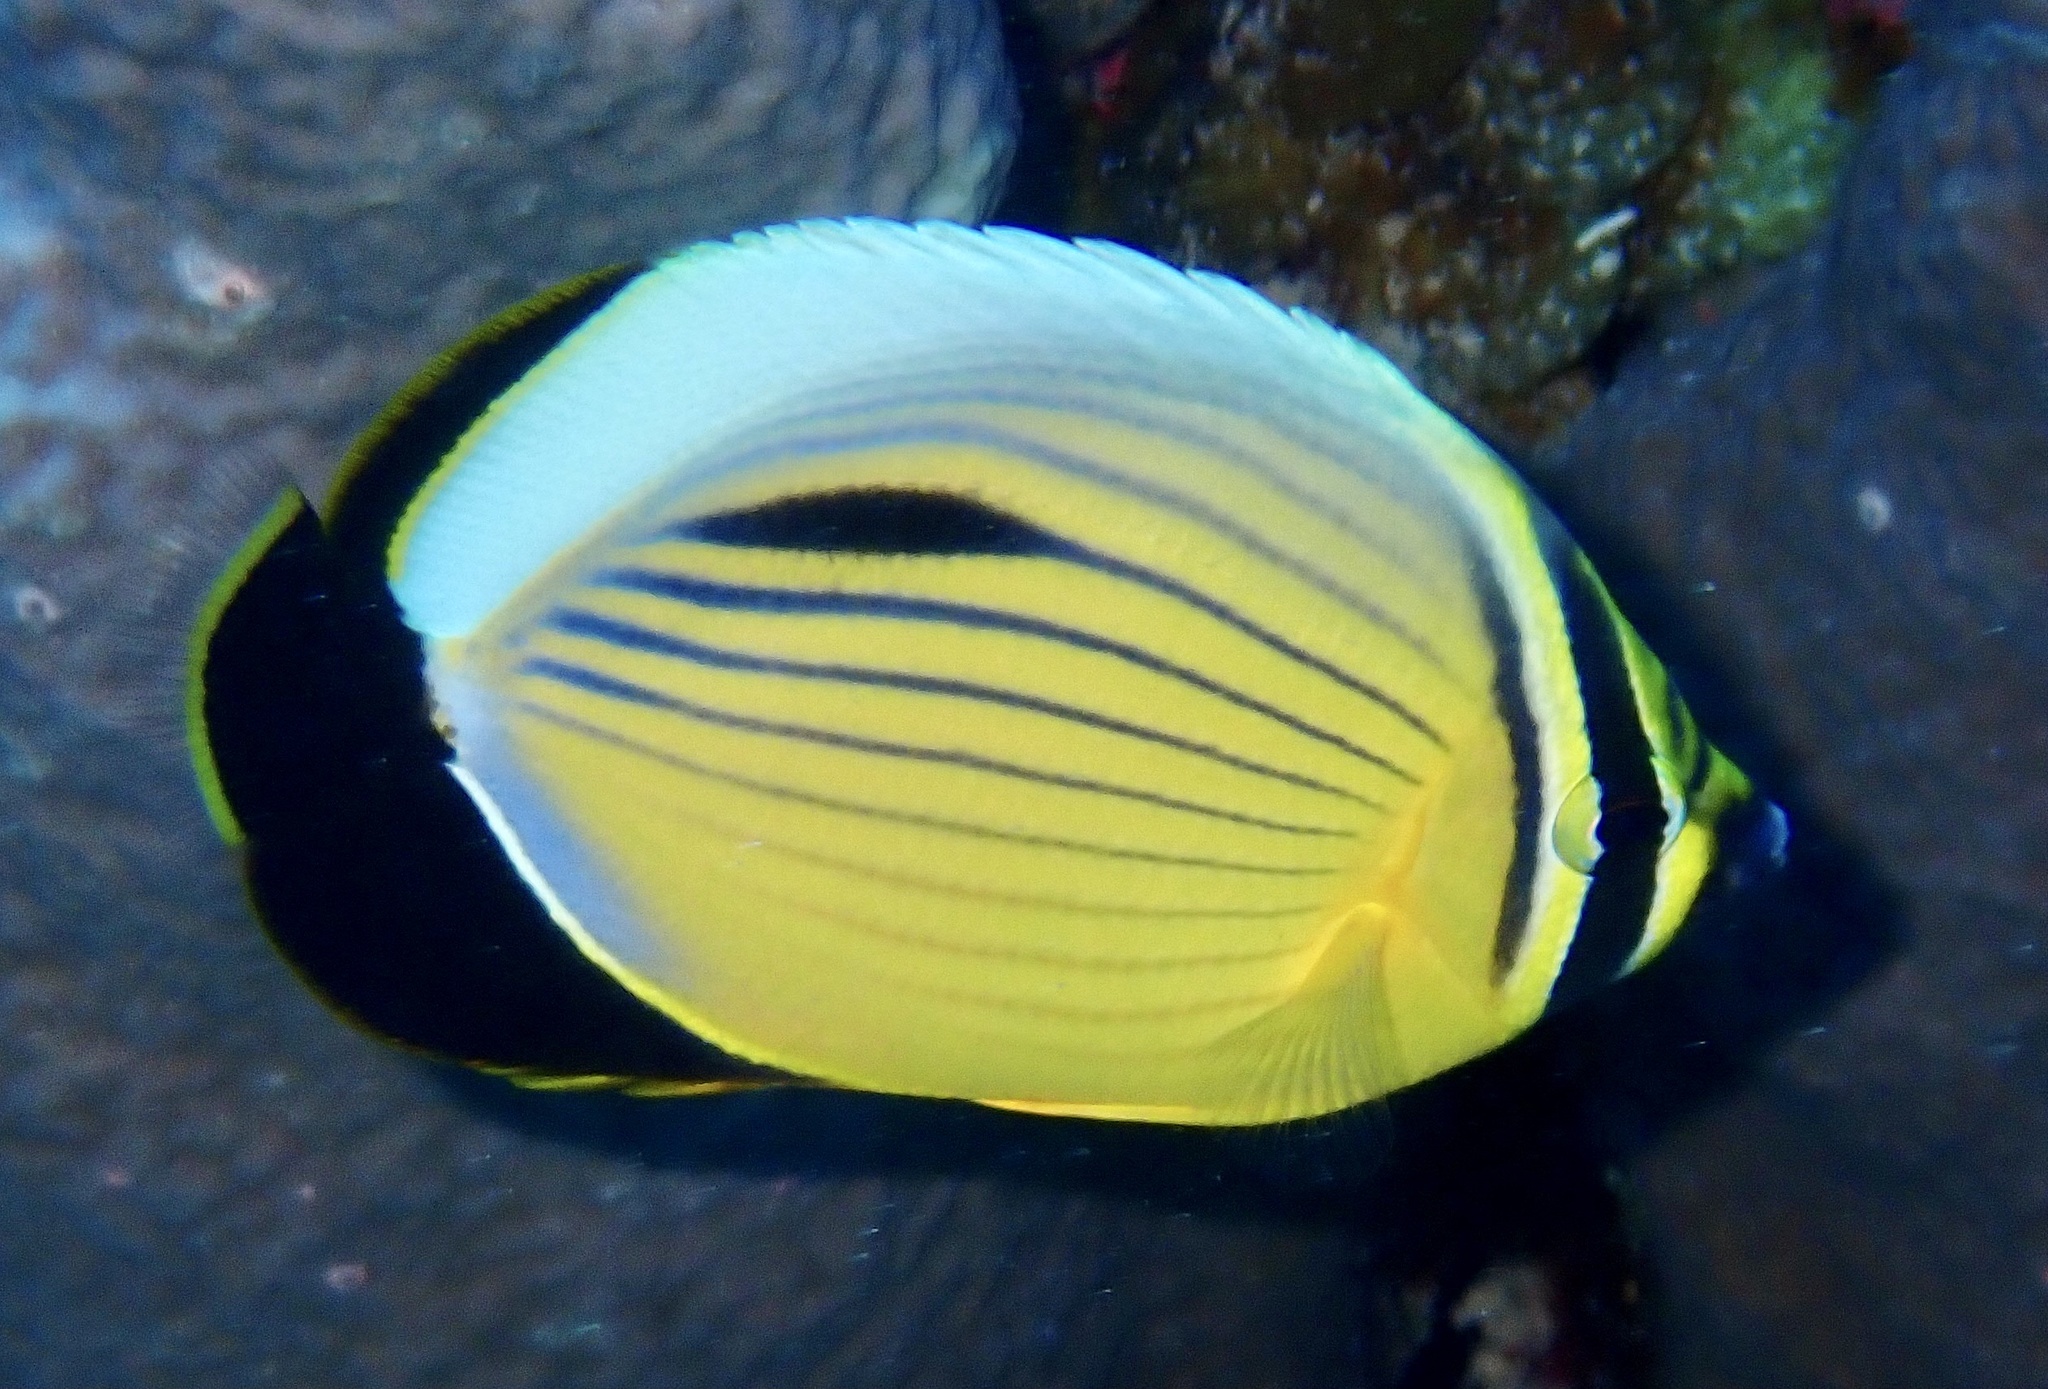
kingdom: Animalia
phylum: Chordata
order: Perciformes
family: Chaetodontidae
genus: Chaetodon
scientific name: Chaetodon austriacus
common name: Exquisite butterflyfish
